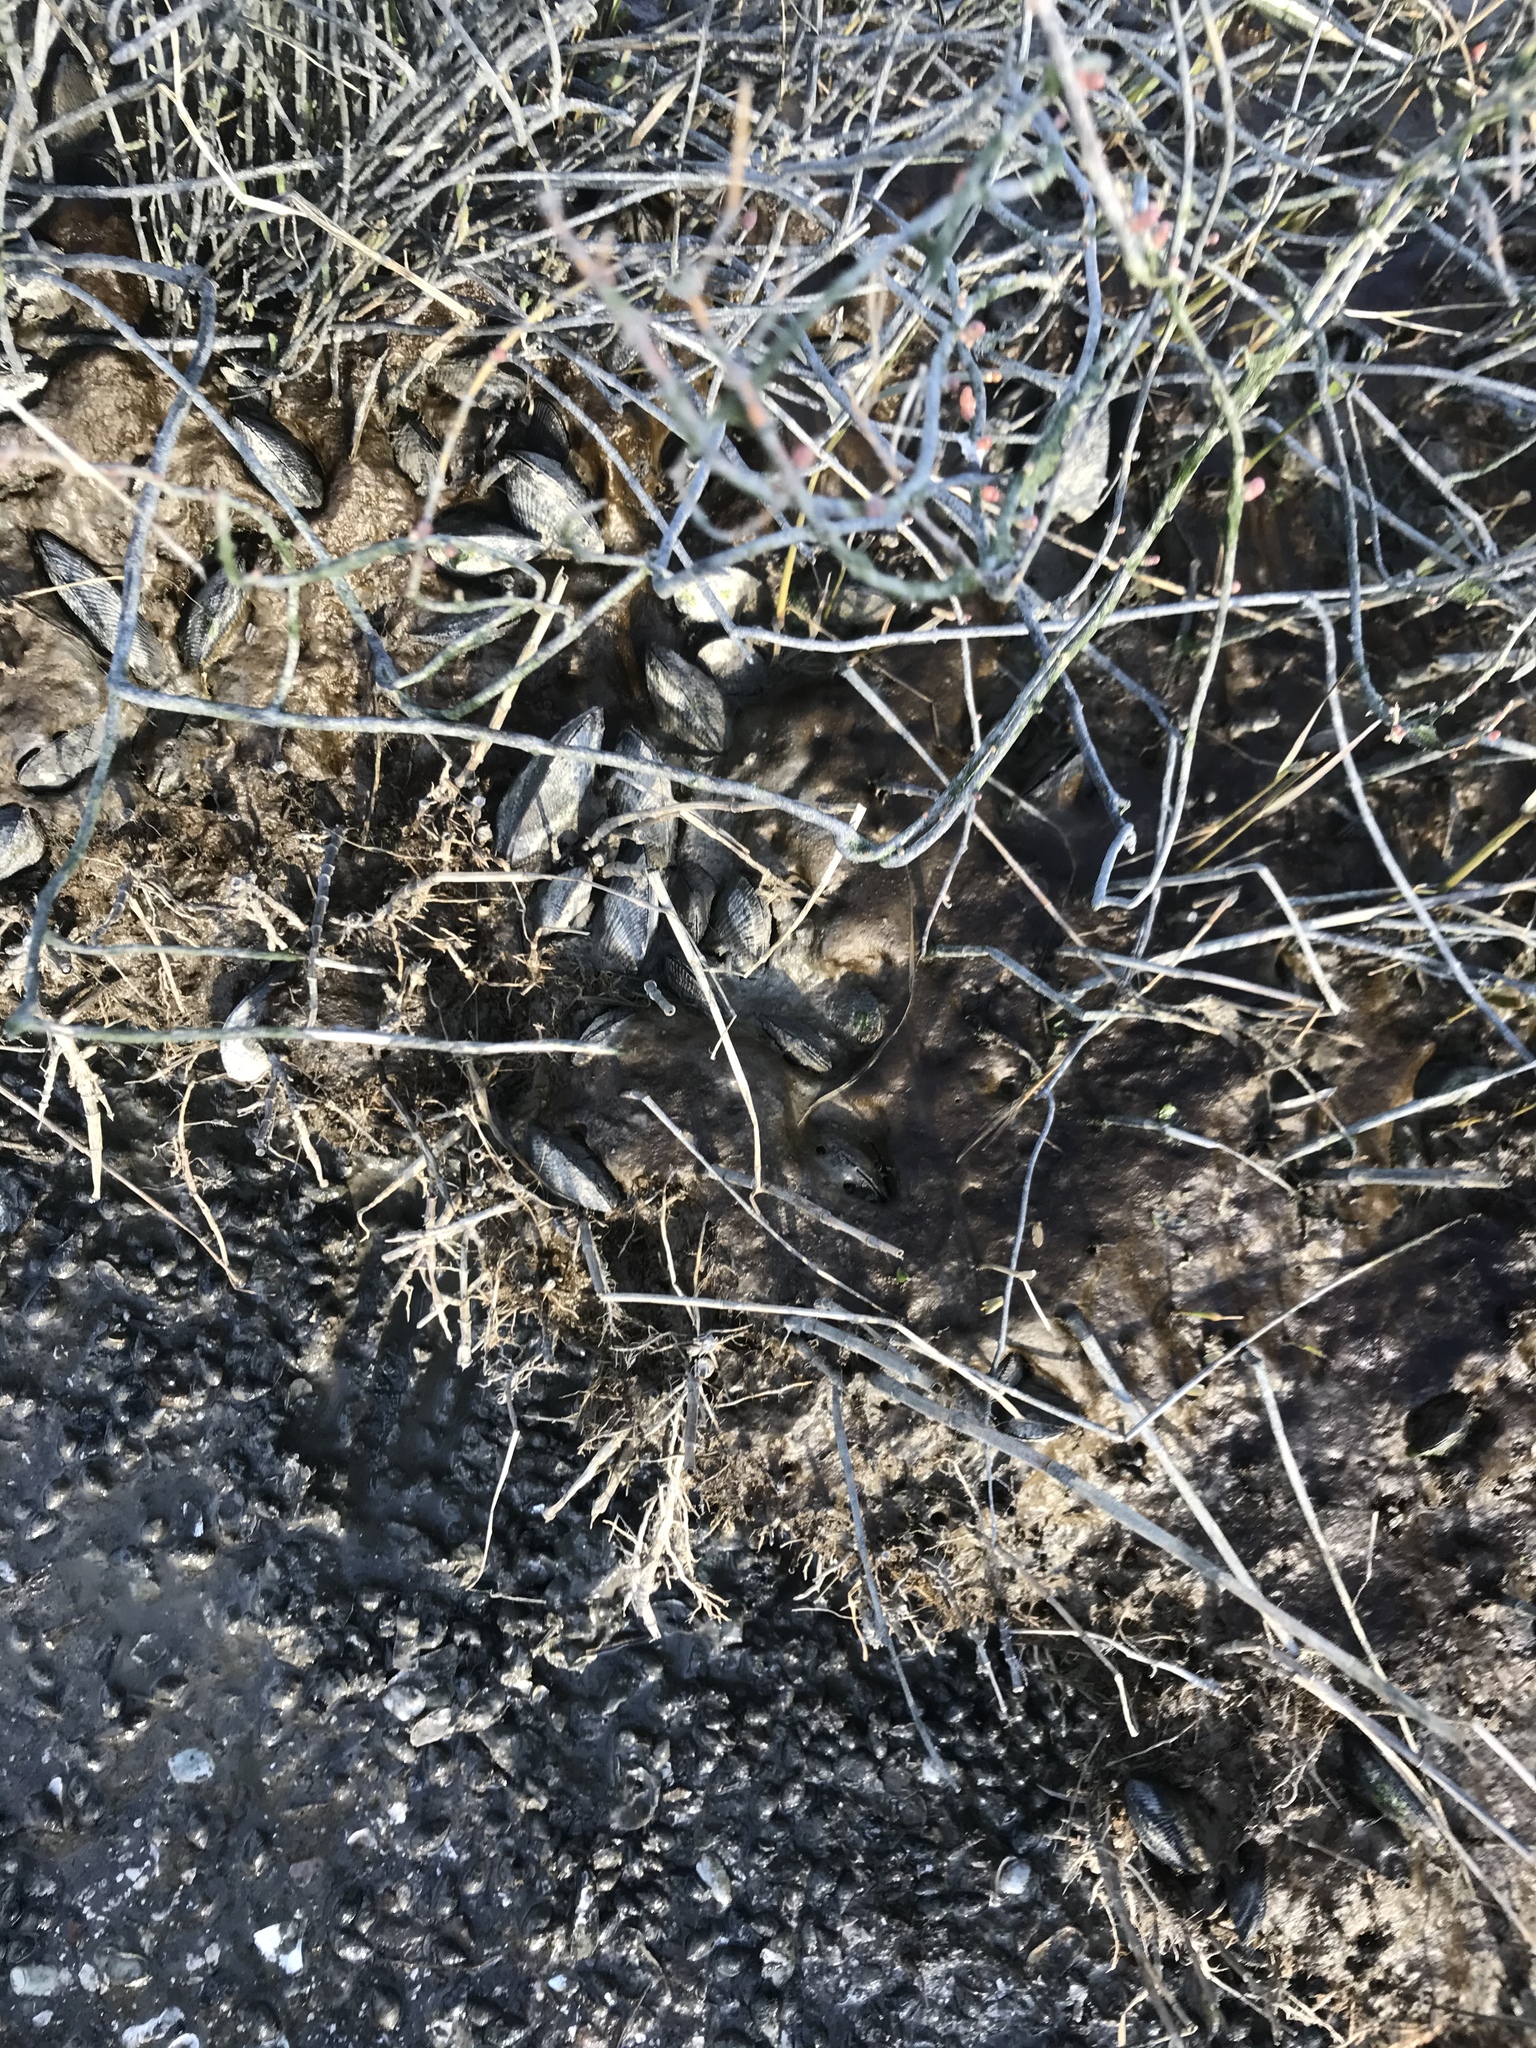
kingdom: Animalia
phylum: Mollusca
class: Bivalvia
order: Mytilida
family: Mytilidae
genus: Geukensia
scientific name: Geukensia demissa
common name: Ribbed mussel
